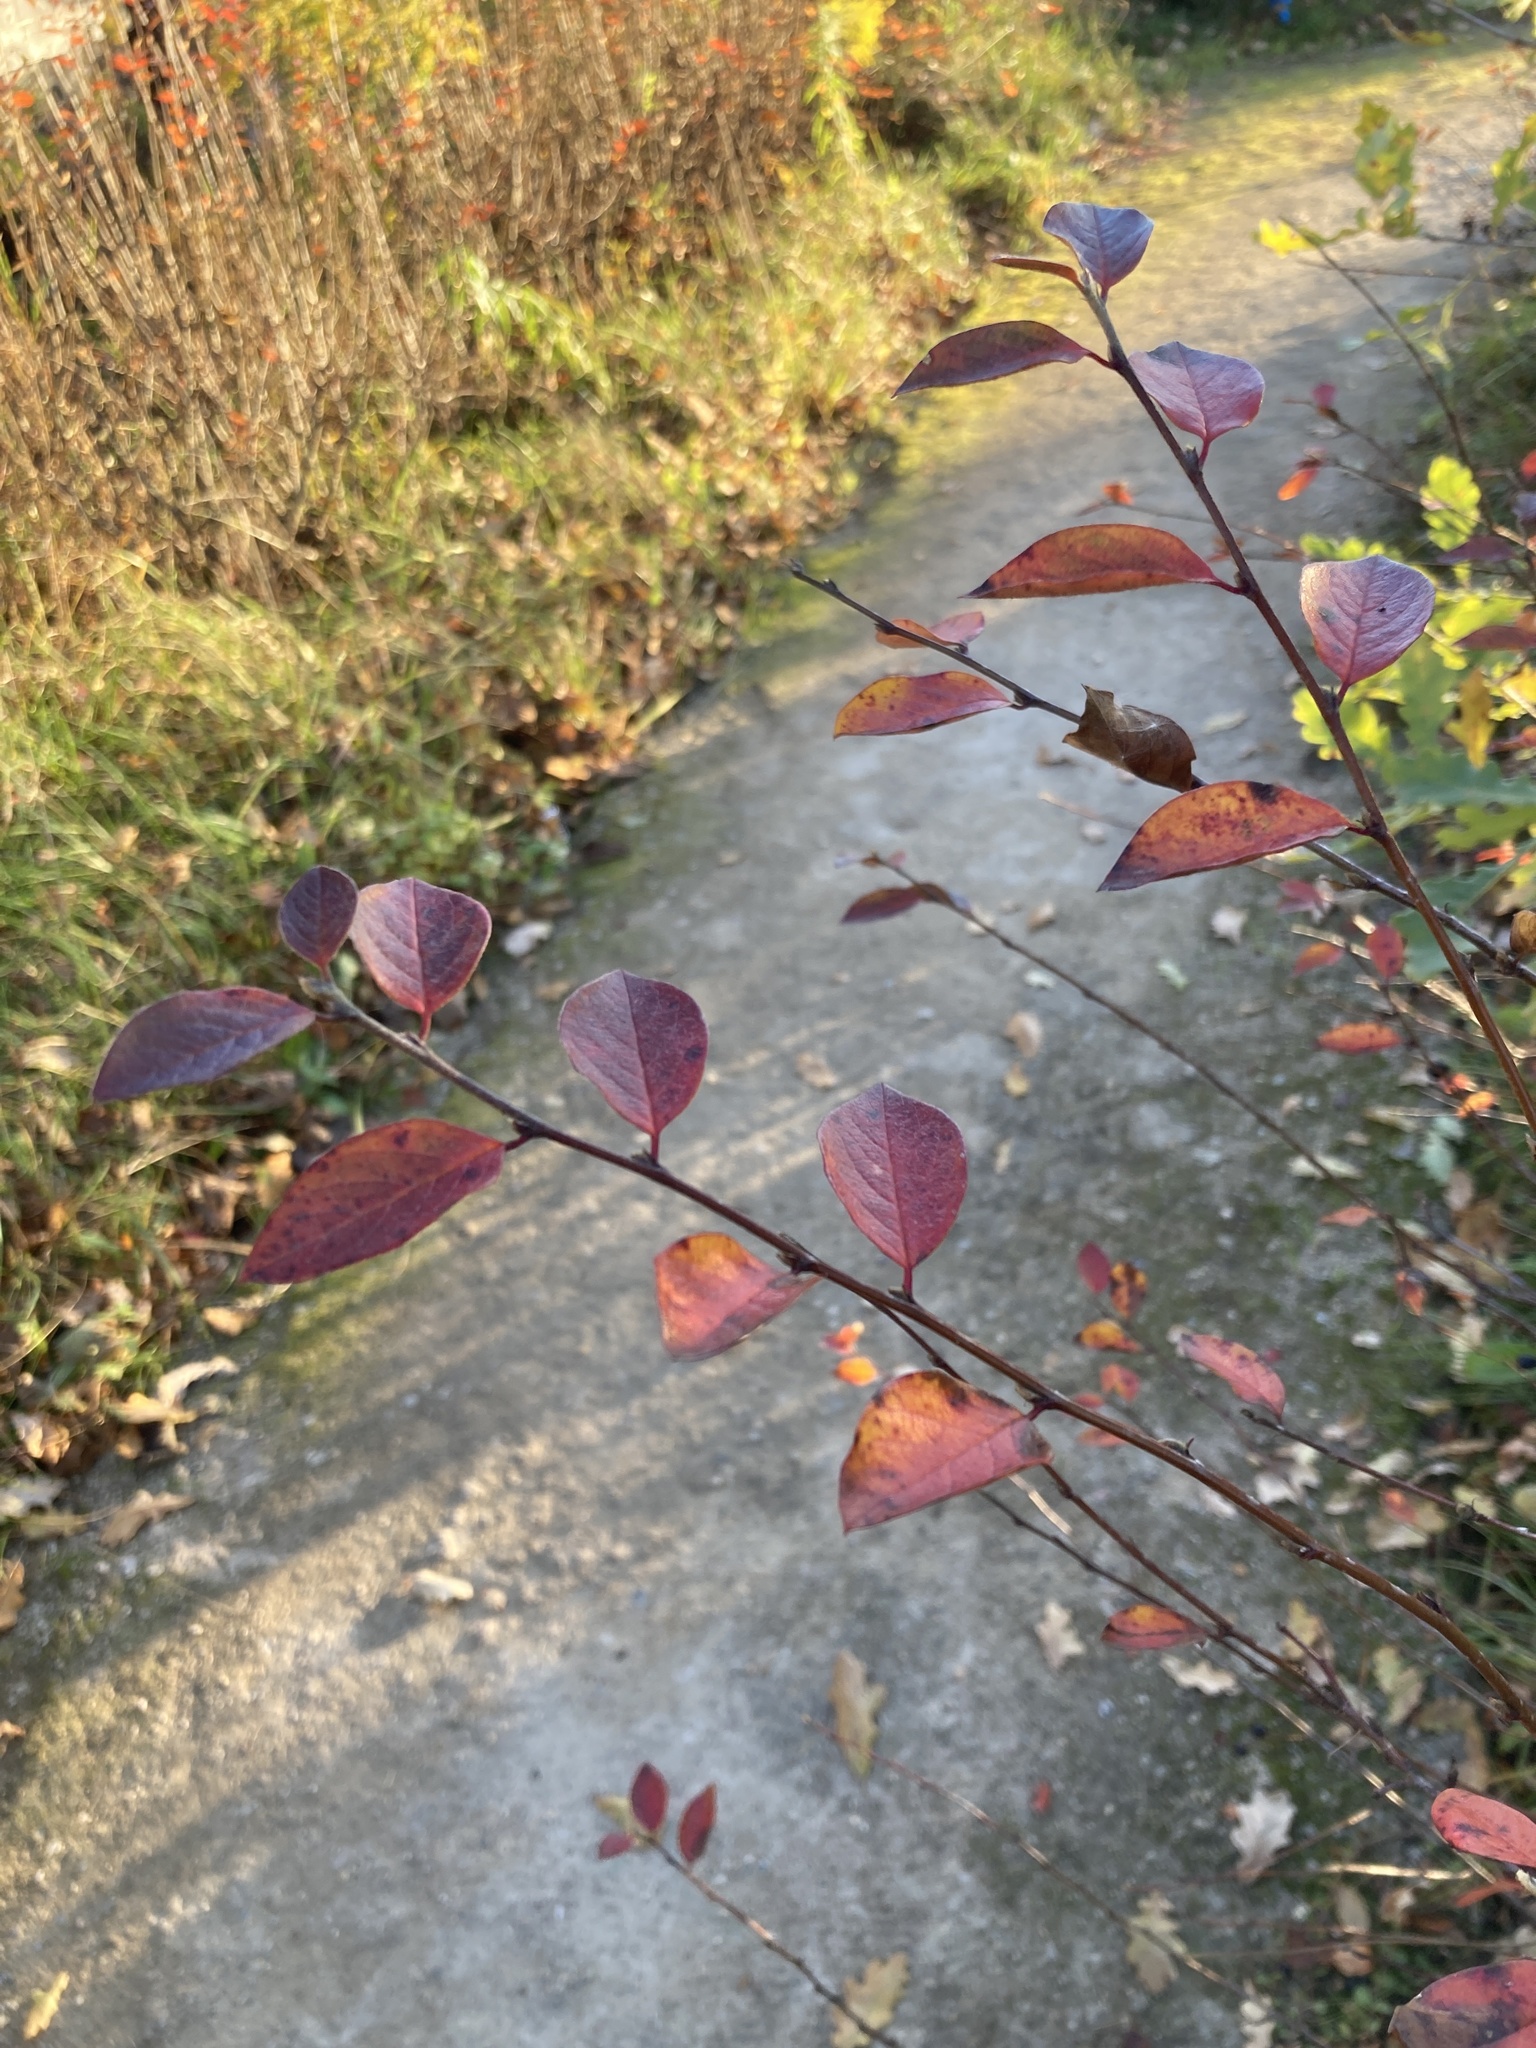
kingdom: Plantae
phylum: Tracheophyta
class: Magnoliopsida
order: Rosales
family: Rosaceae
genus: Cotoneaster
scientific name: Cotoneaster acutifolius
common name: Peking cotoneaster
